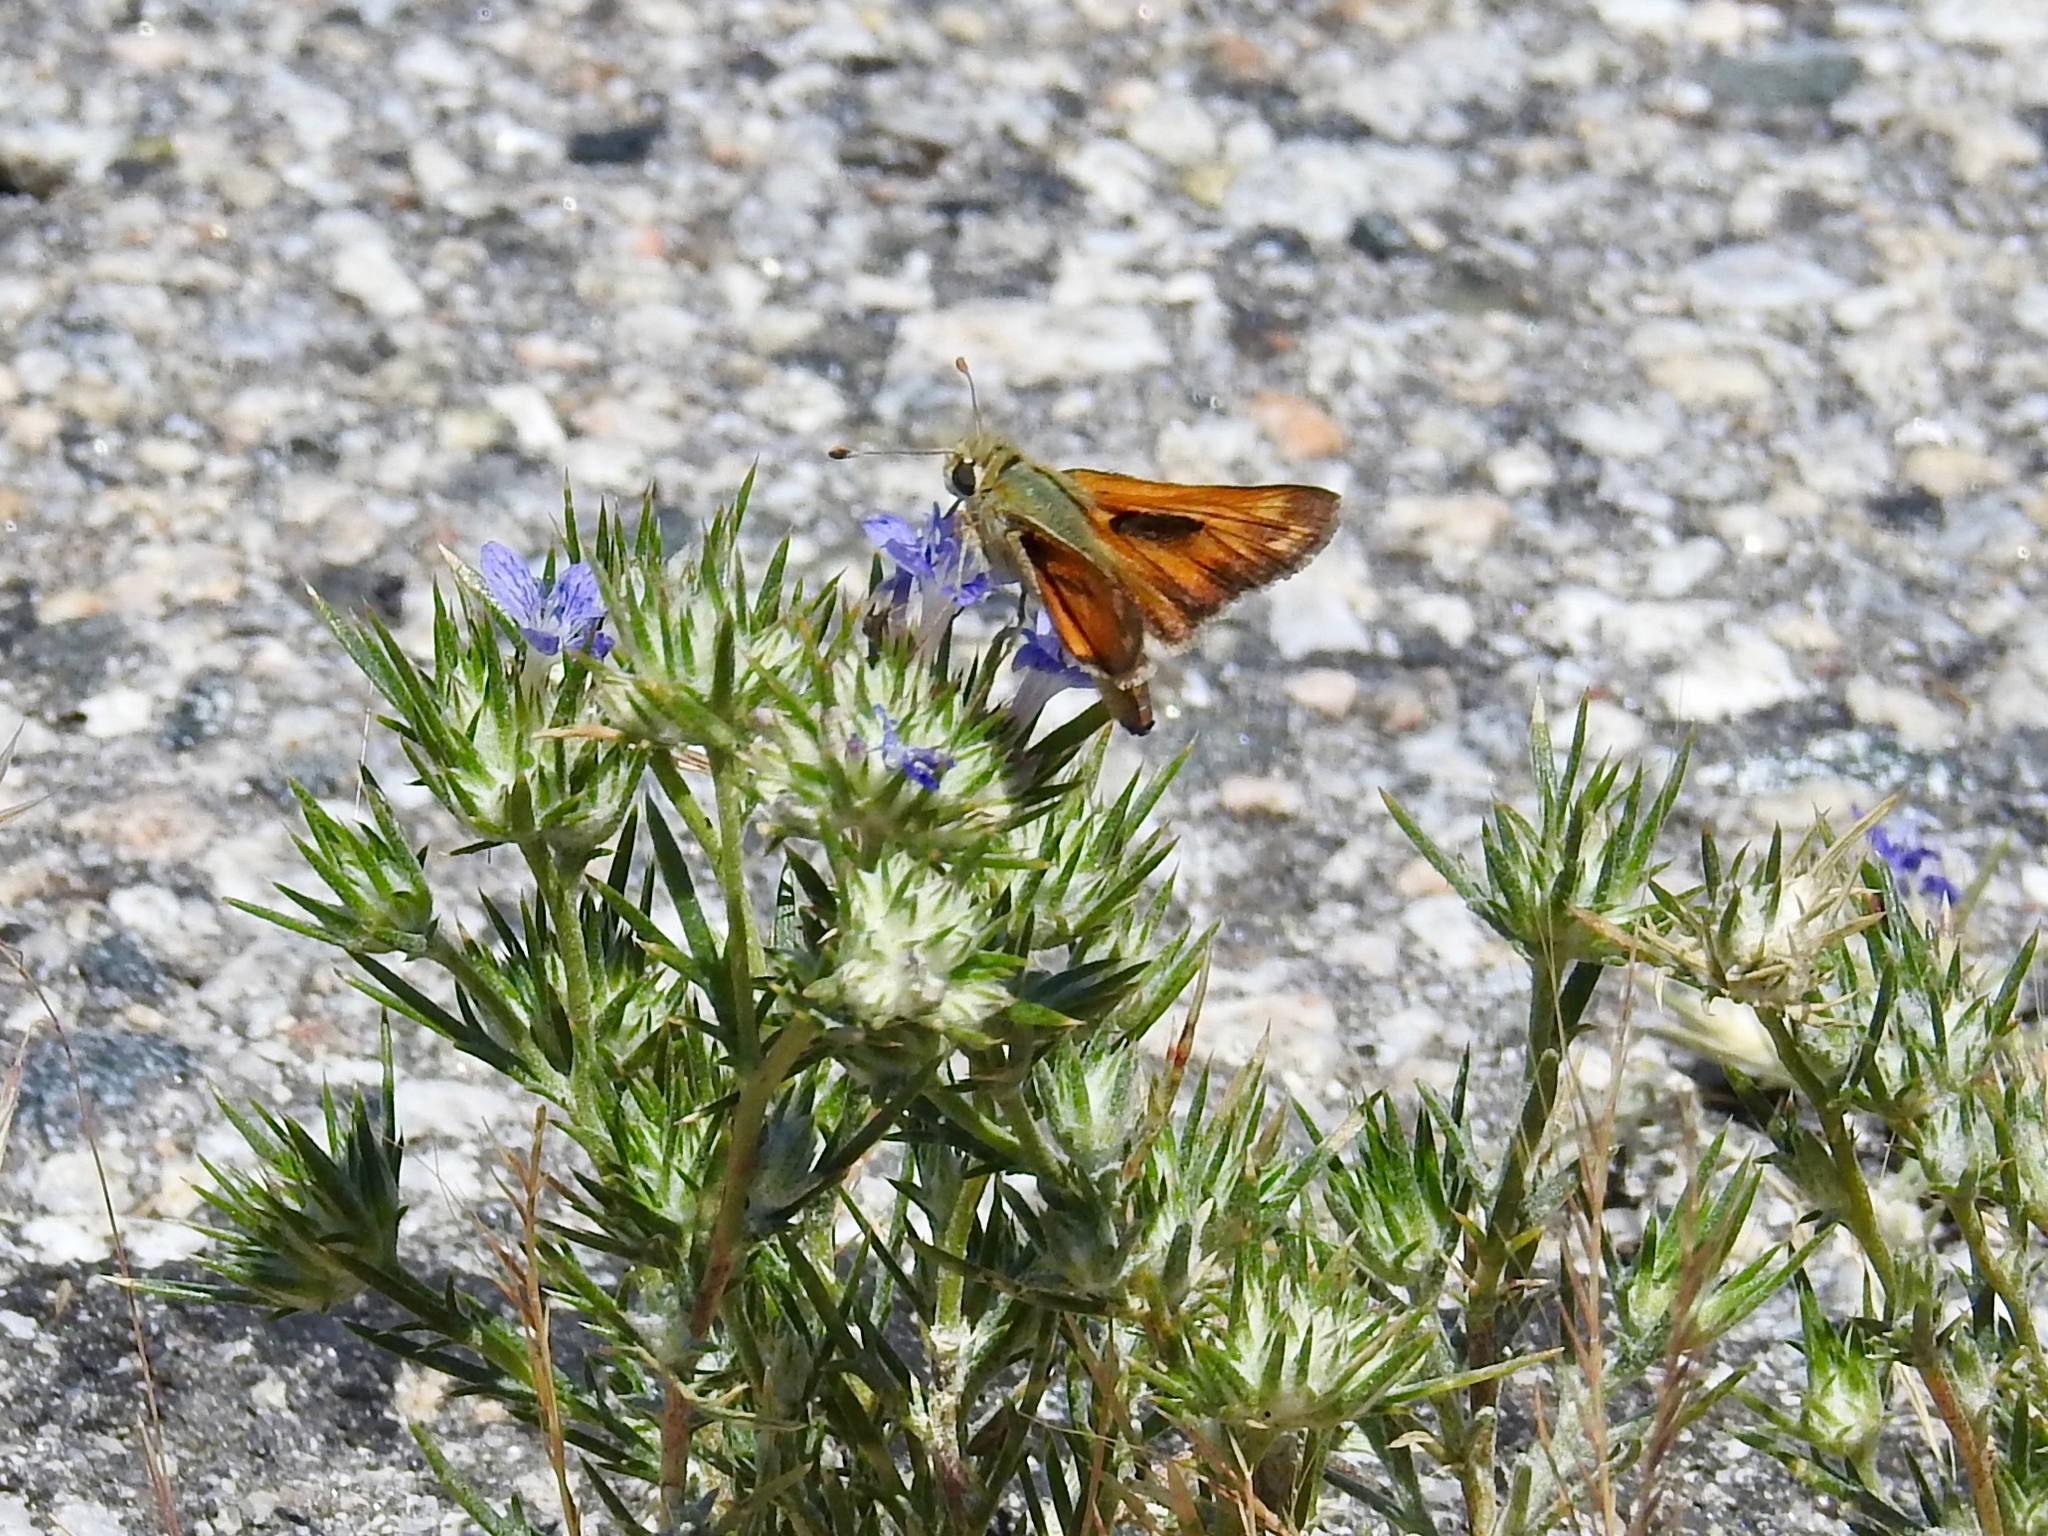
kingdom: Animalia
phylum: Arthropoda
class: Insecta
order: Lepidoptera
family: Hesperiidae
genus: Hesperia
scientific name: Hesperia comma
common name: Common branded skipper
